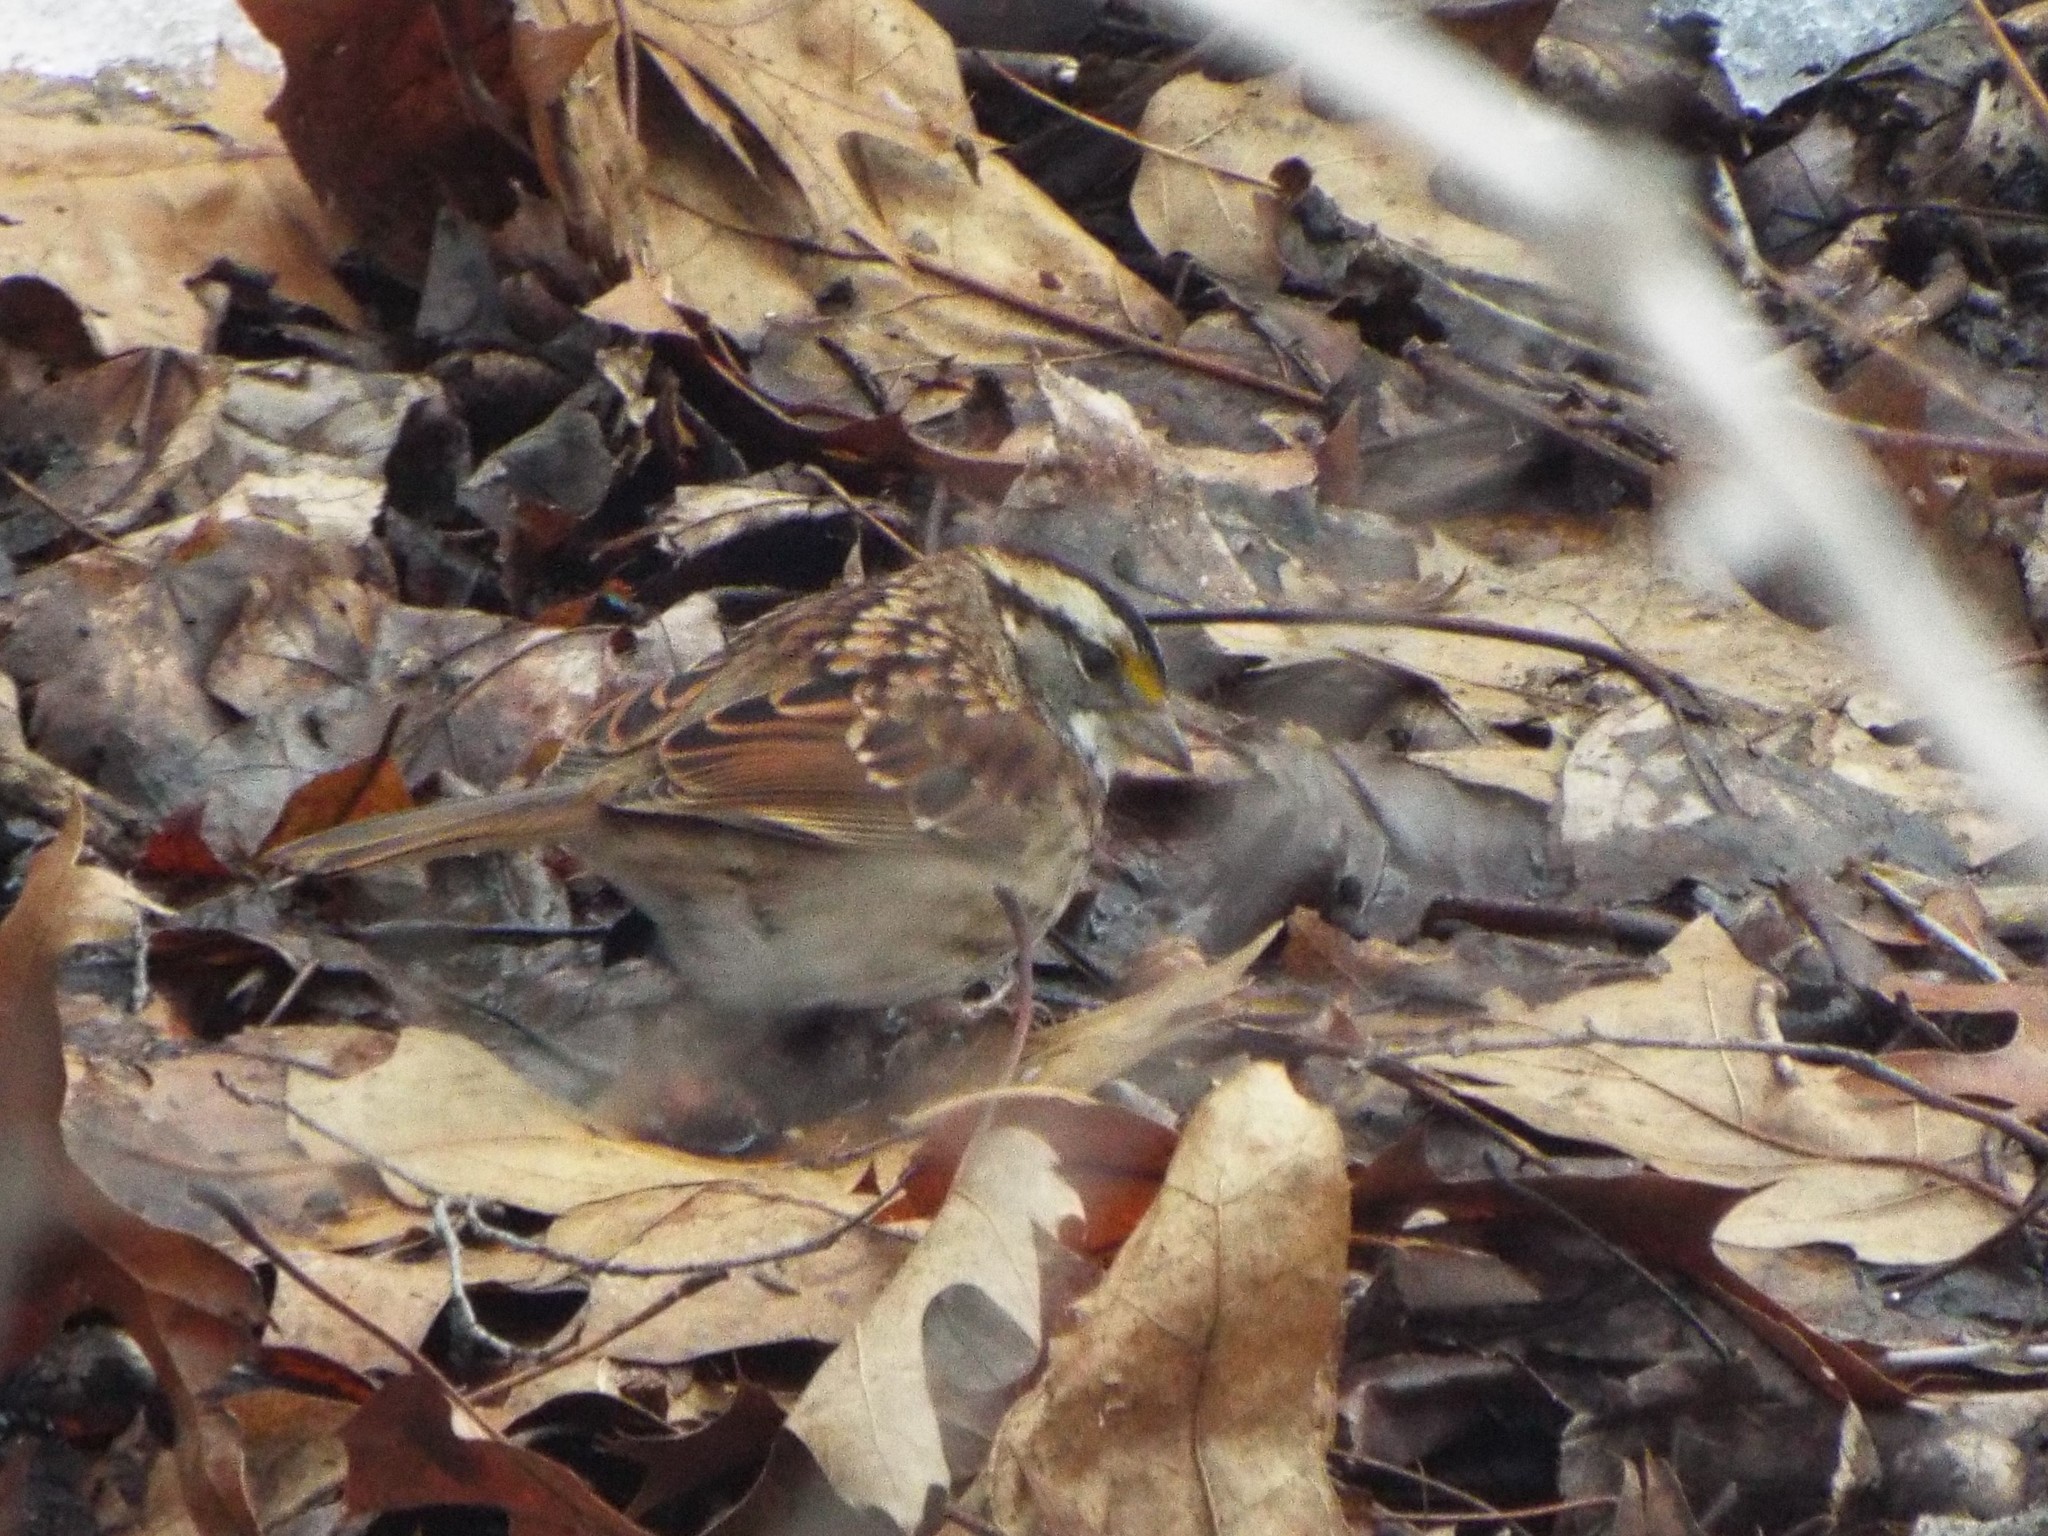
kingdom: Animalia
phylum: Chordata
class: Aves
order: Passeriformes
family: Passerellidae
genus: Zonotrichia
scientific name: Zonotrichia albicollis
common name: White-throated sparrow
